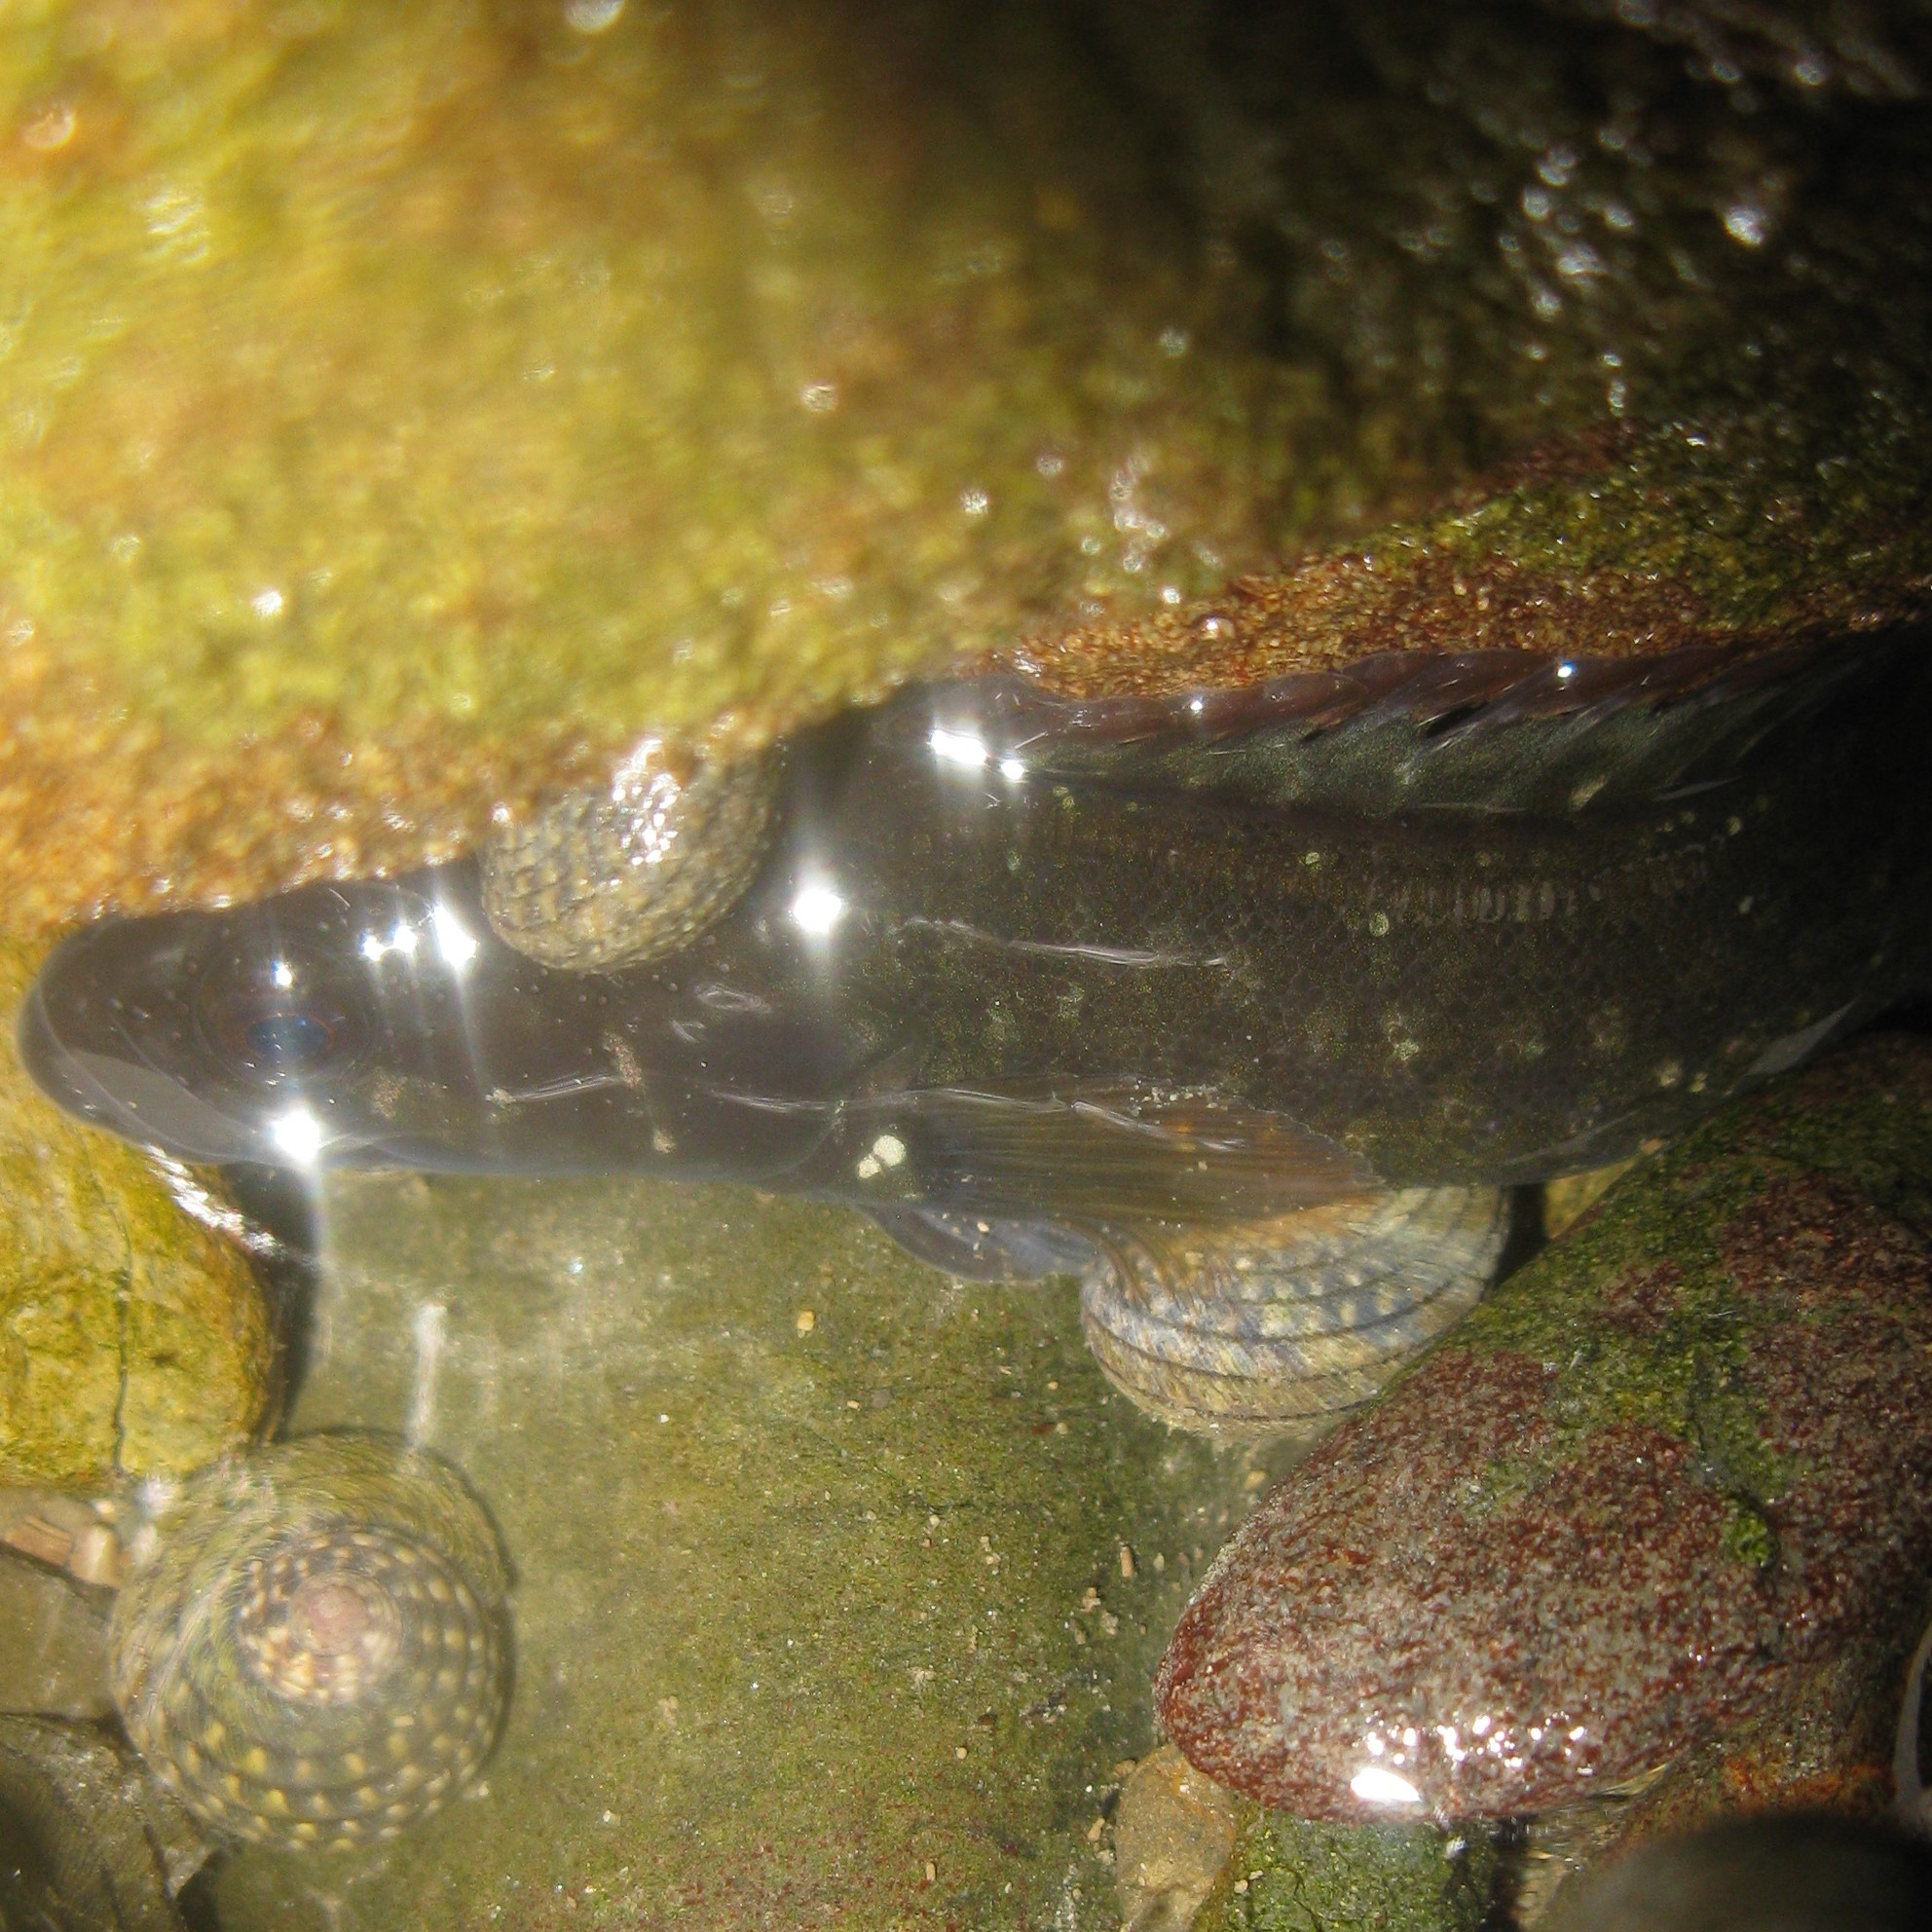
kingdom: Animalia
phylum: Chordata
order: Perciformes
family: Plesiopidae
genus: Acanthoclinus
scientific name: Acanthoclinus fuscus
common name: Olive rockfish
